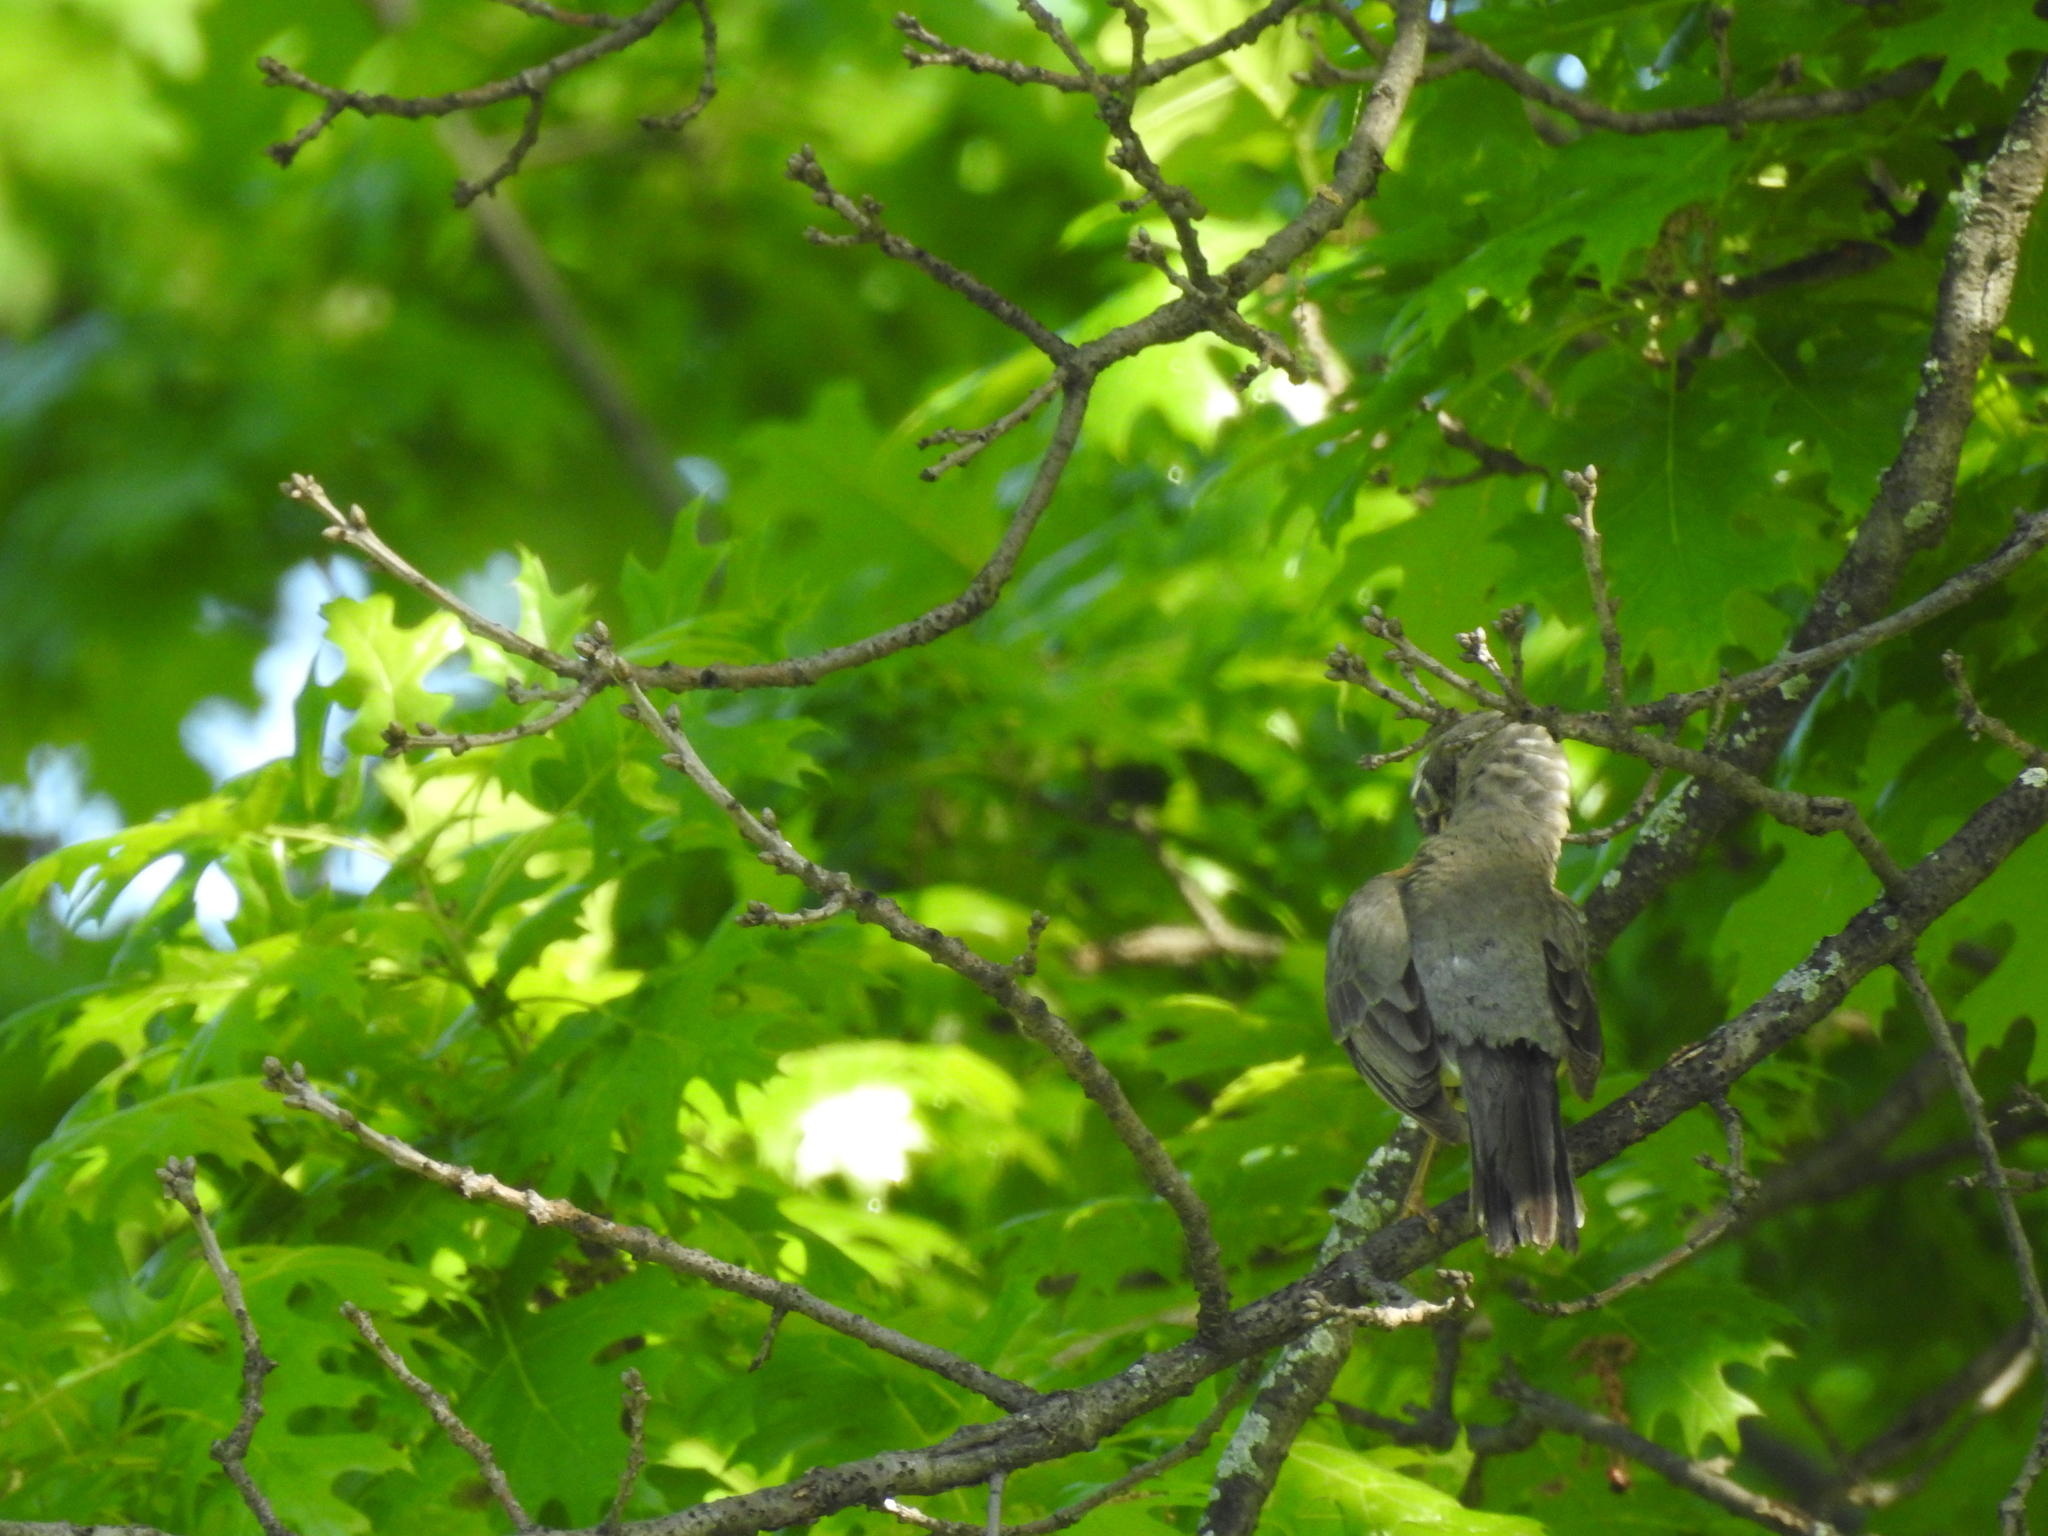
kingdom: Animalia
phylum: Chordata
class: Aves
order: Passeriformes
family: Turdidae
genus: Turdus
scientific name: Turdus migratorius
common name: American robin
